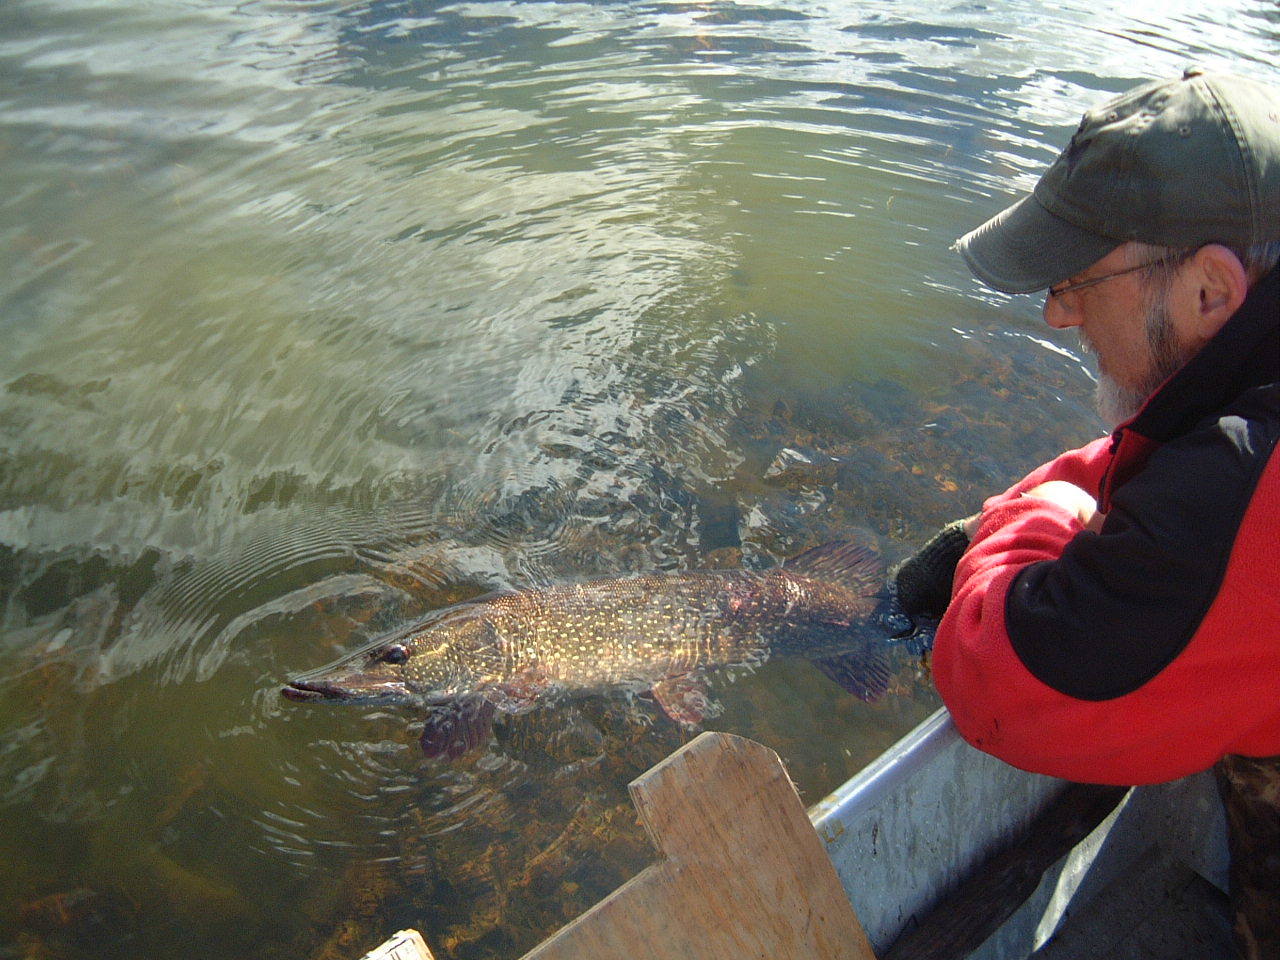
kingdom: Animalia
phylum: Chordata
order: Esociformes
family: Esocidae
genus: Esox
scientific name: Esox lucius
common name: Northern pike
